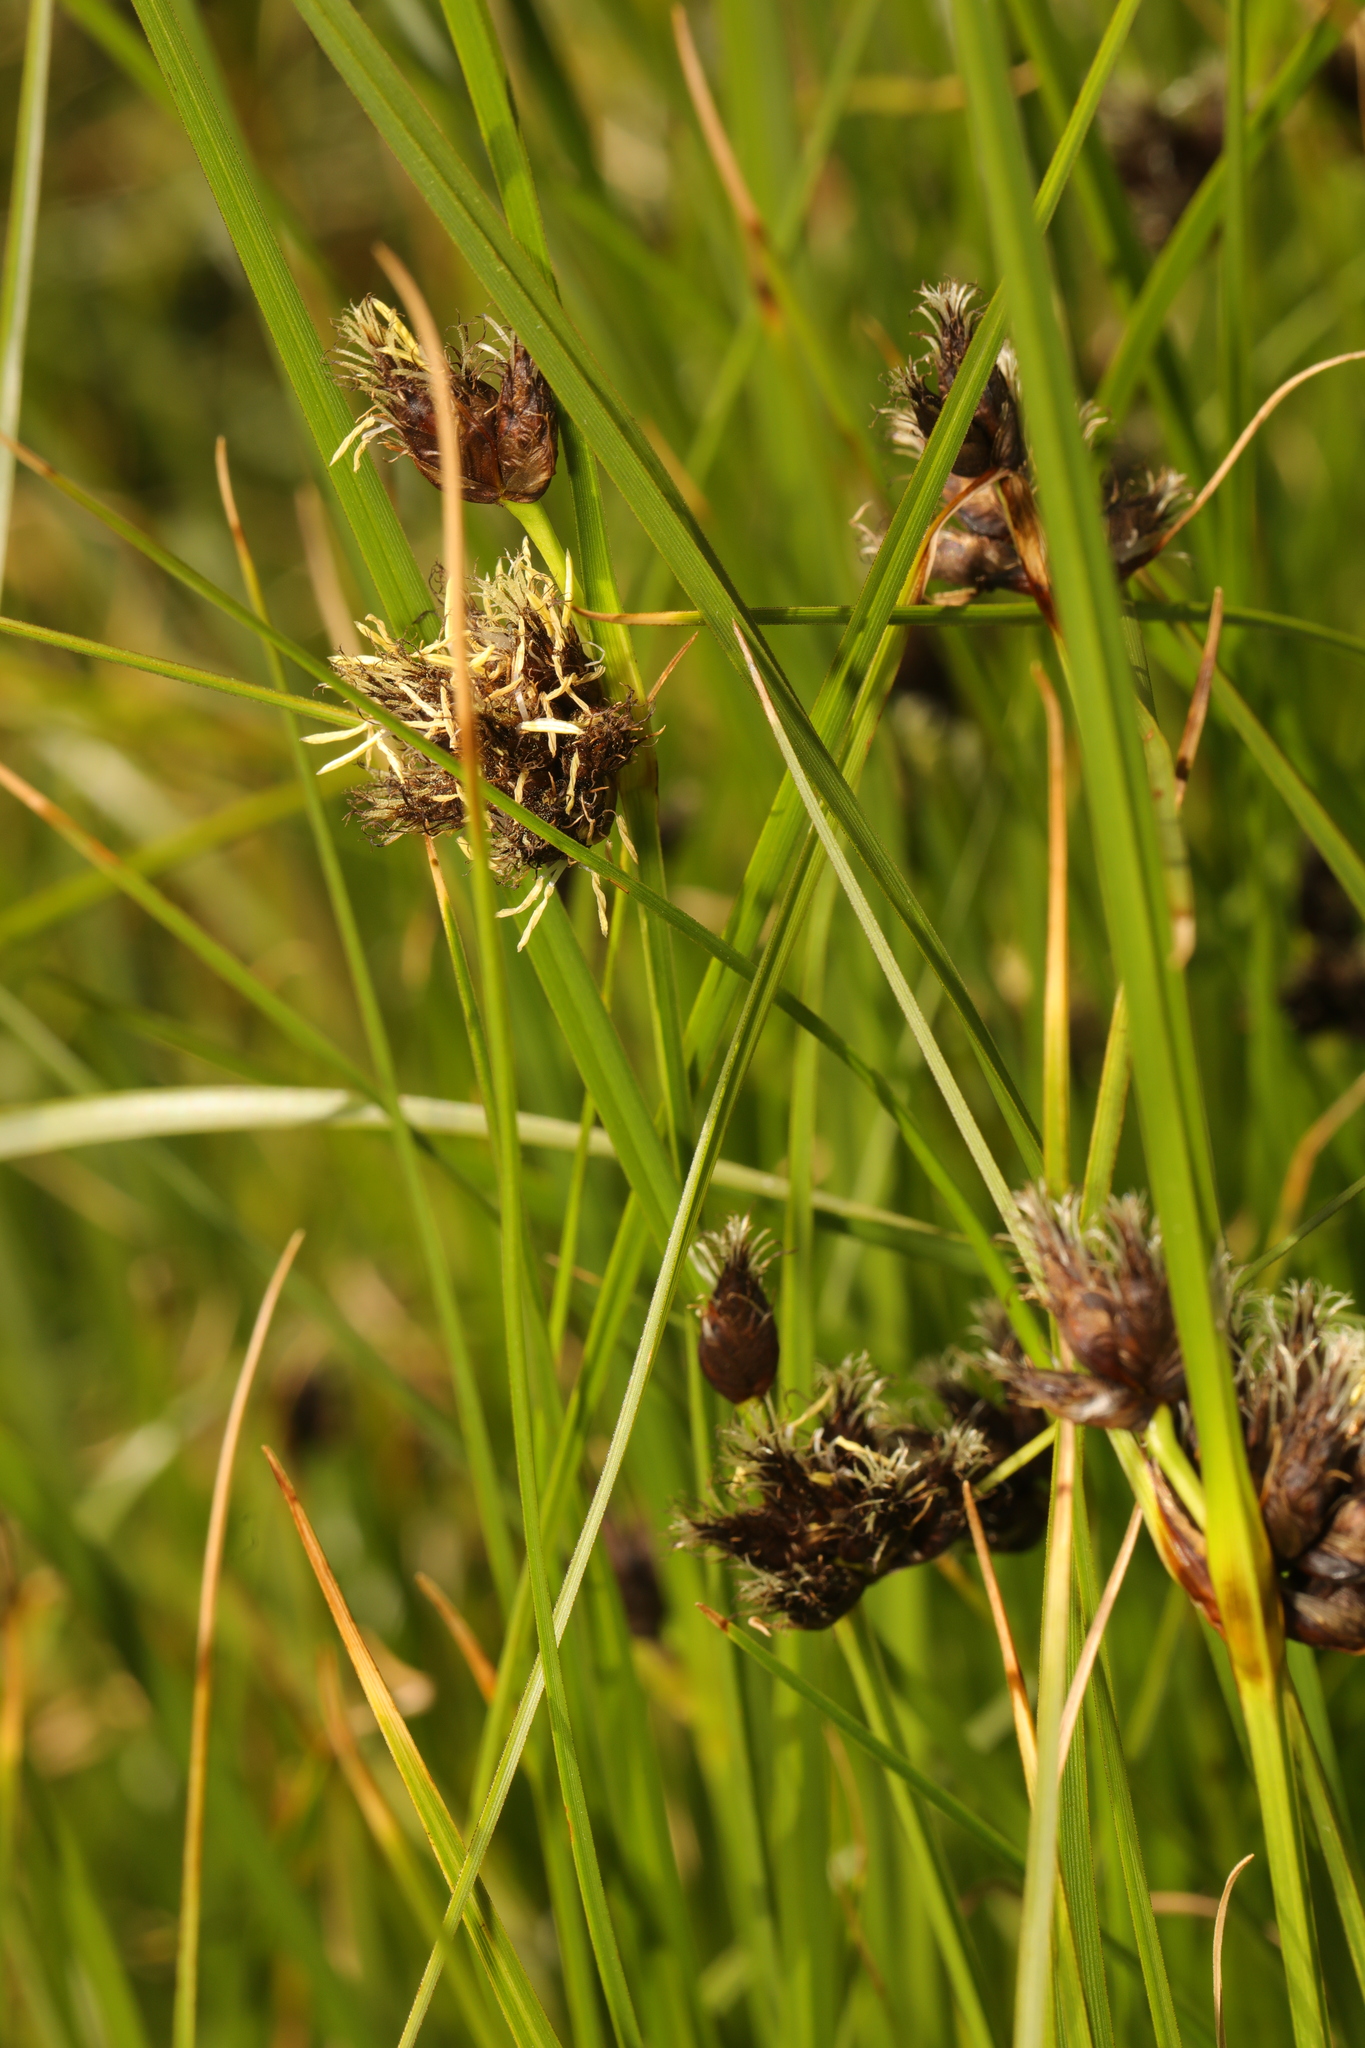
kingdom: Plantae
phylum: Tracheophyta
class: Liliopsida
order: Poales
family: Cyperaceae
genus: Bolboschoenus
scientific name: Bolboschoenus maritimus
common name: Sea club-rush
